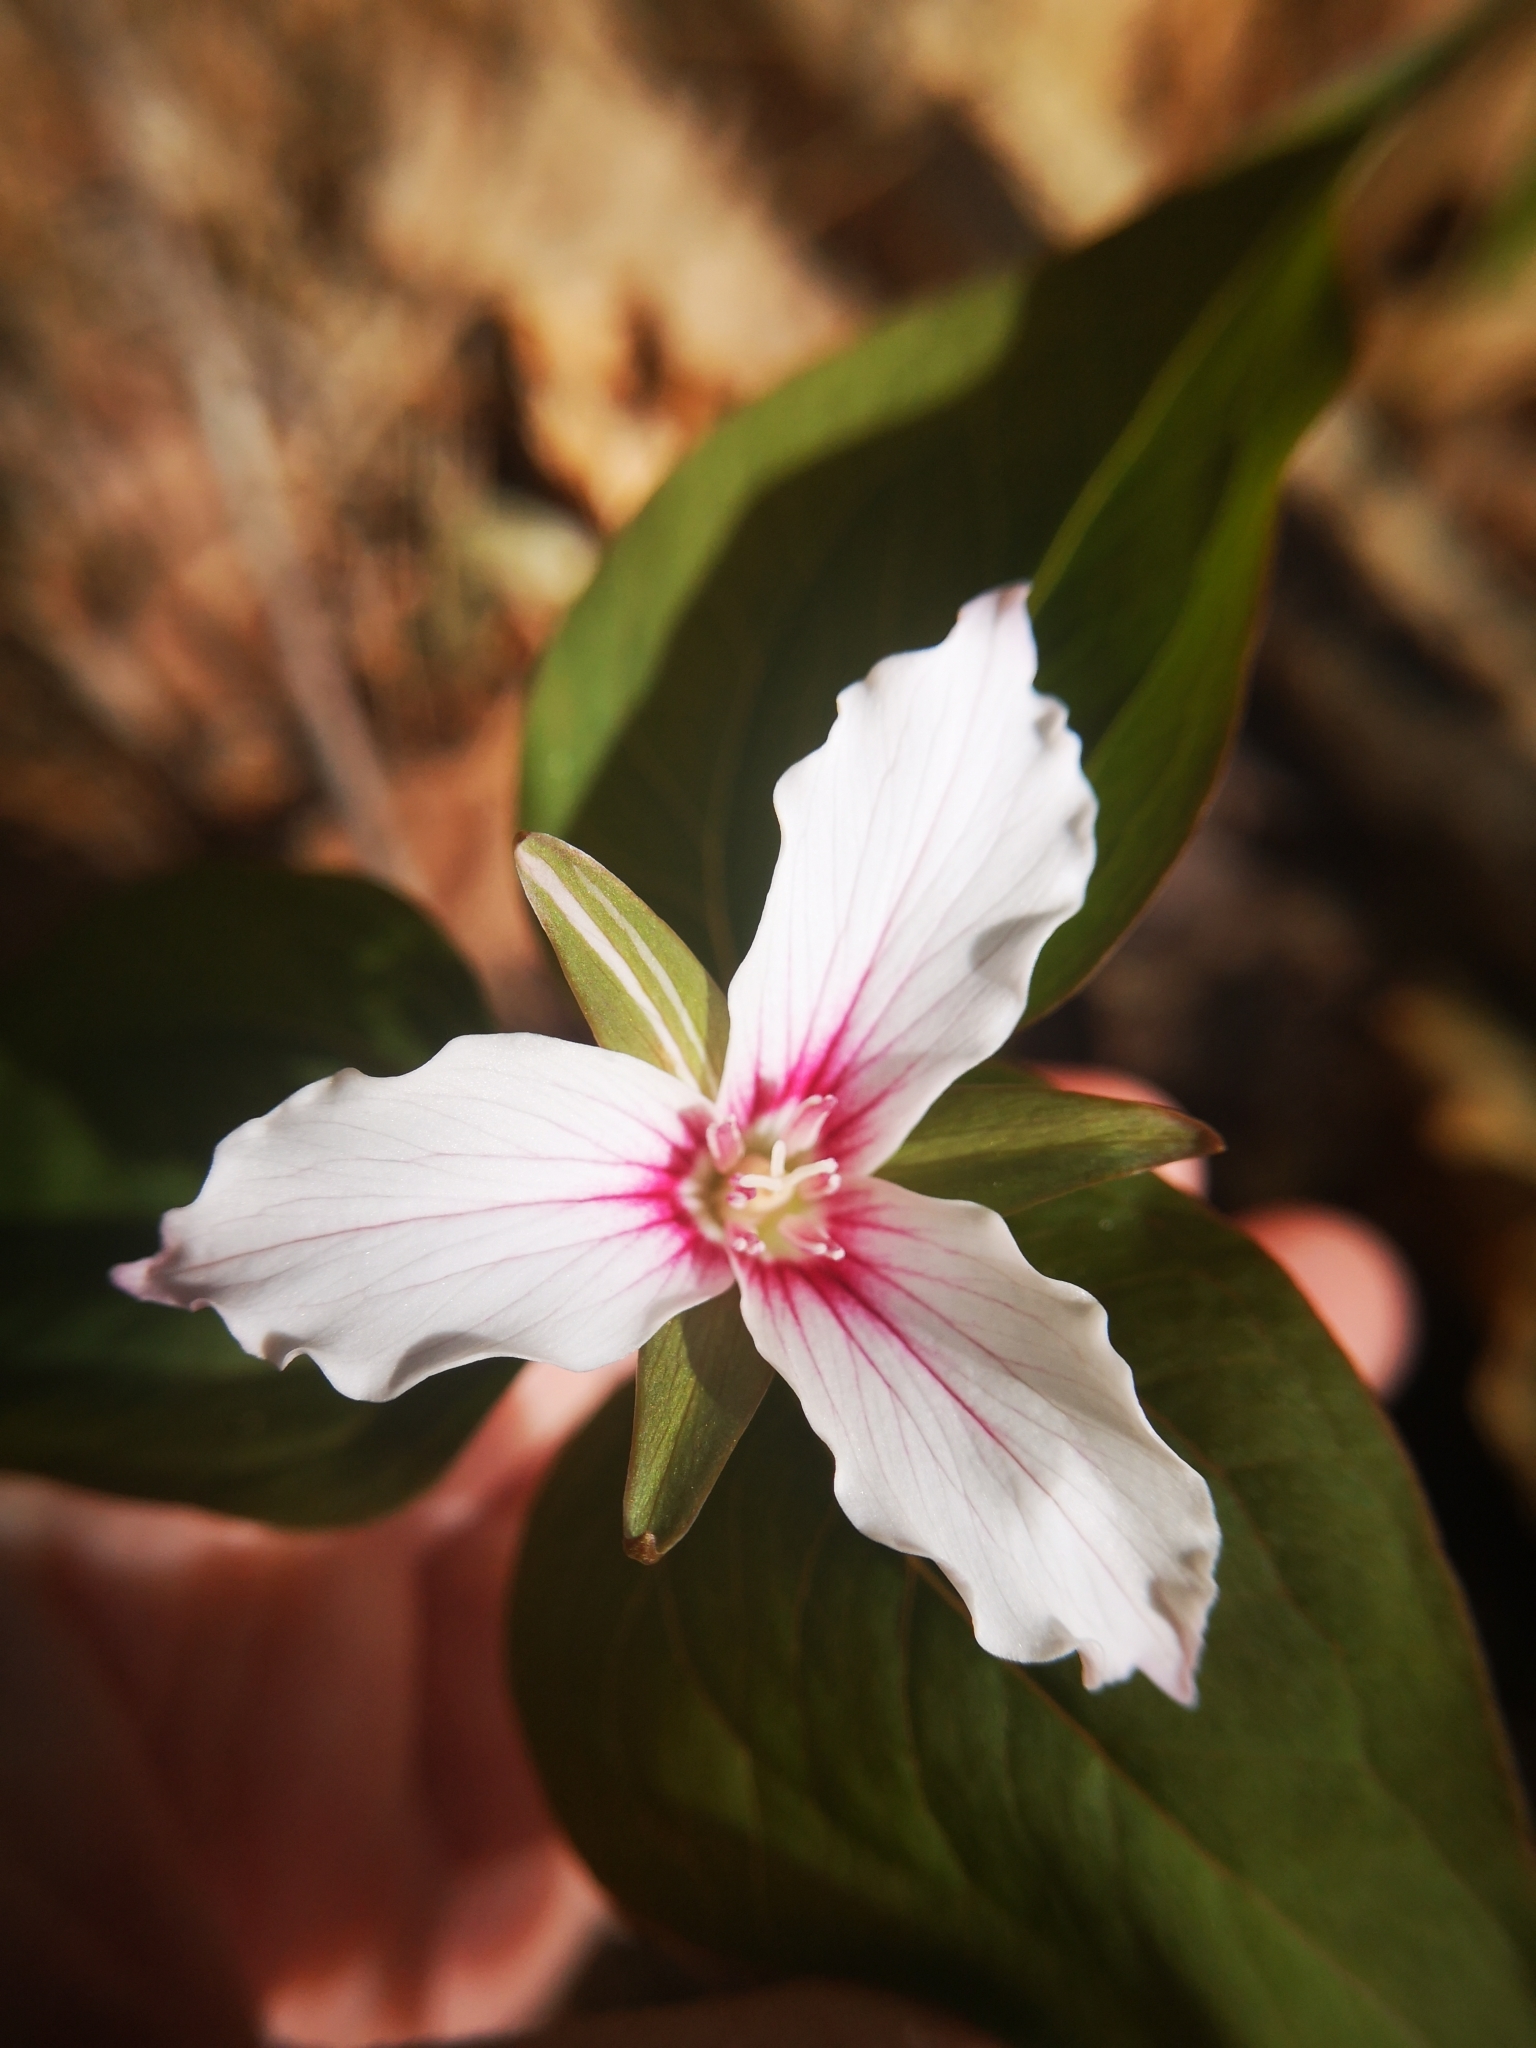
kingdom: Plantae
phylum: Tracheophyta
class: Liliopsida
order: Liliales
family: Melanthiaceae
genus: Trillium
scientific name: Trillium undulatum
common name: Paint trillium
